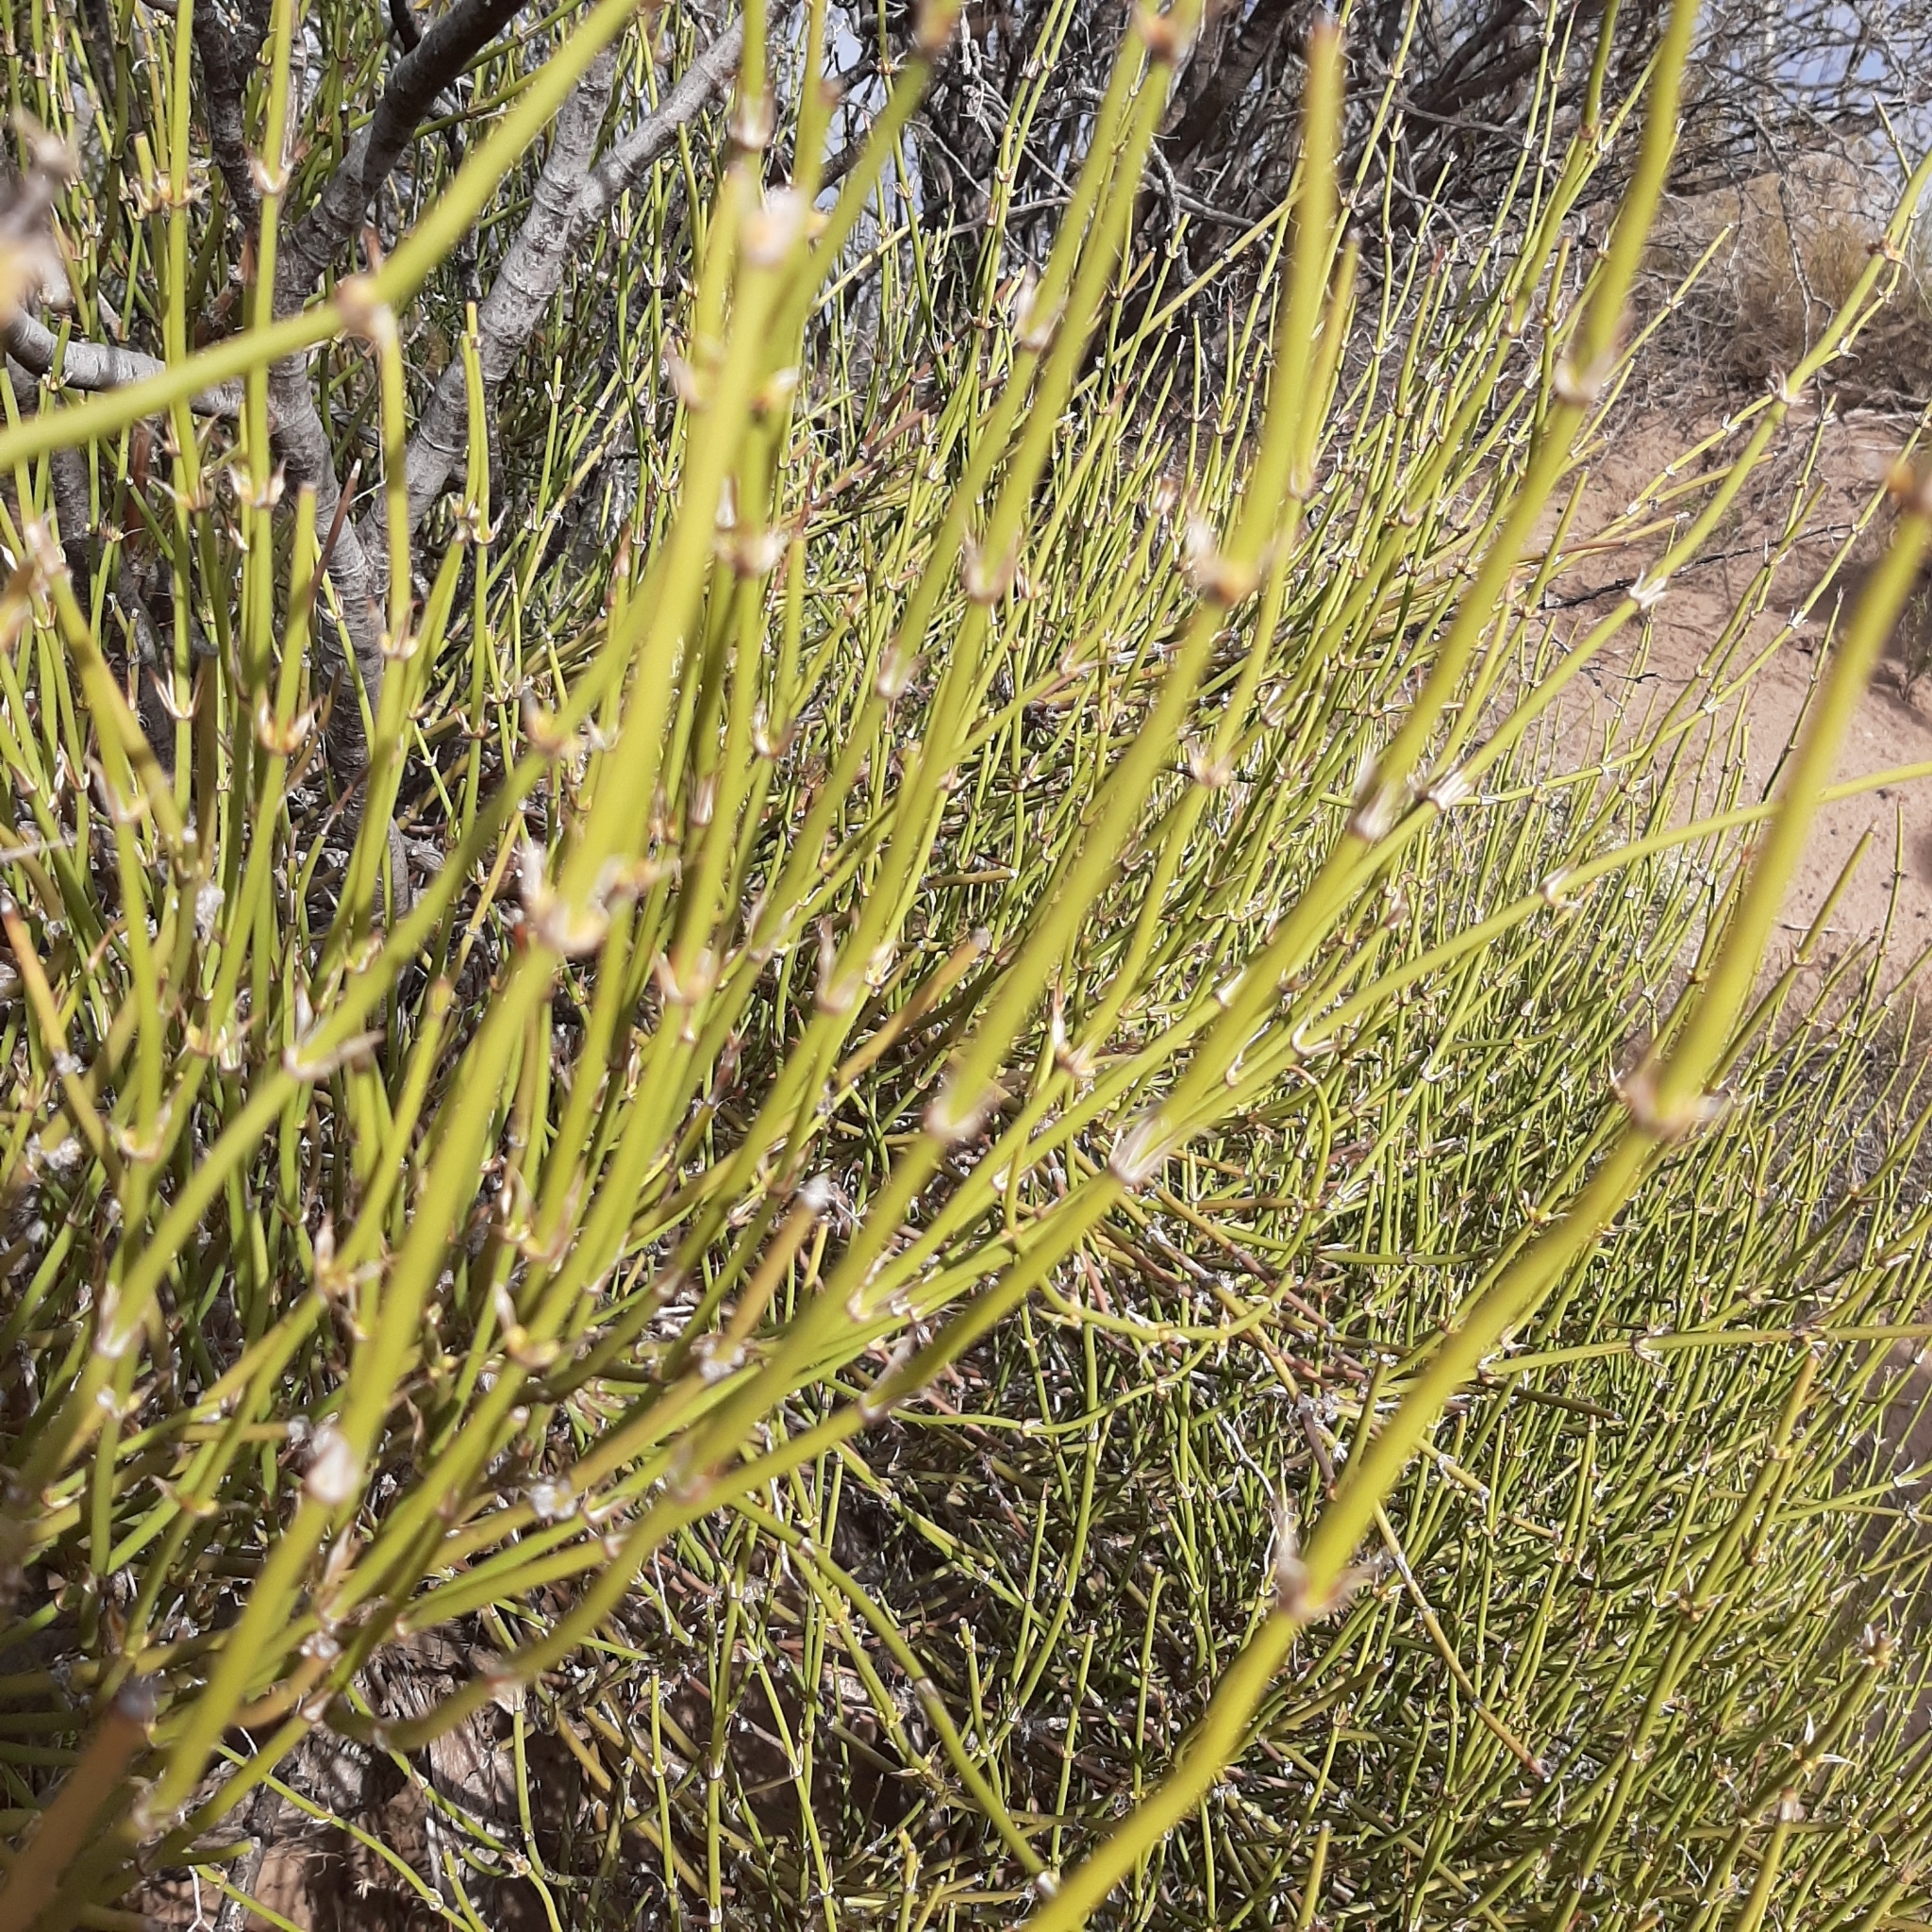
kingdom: Plantae
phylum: Tracheophyta
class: Gnetopsida
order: Ephedrales
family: Ephedraceae
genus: Ephedra
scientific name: Ephedra ochreata
